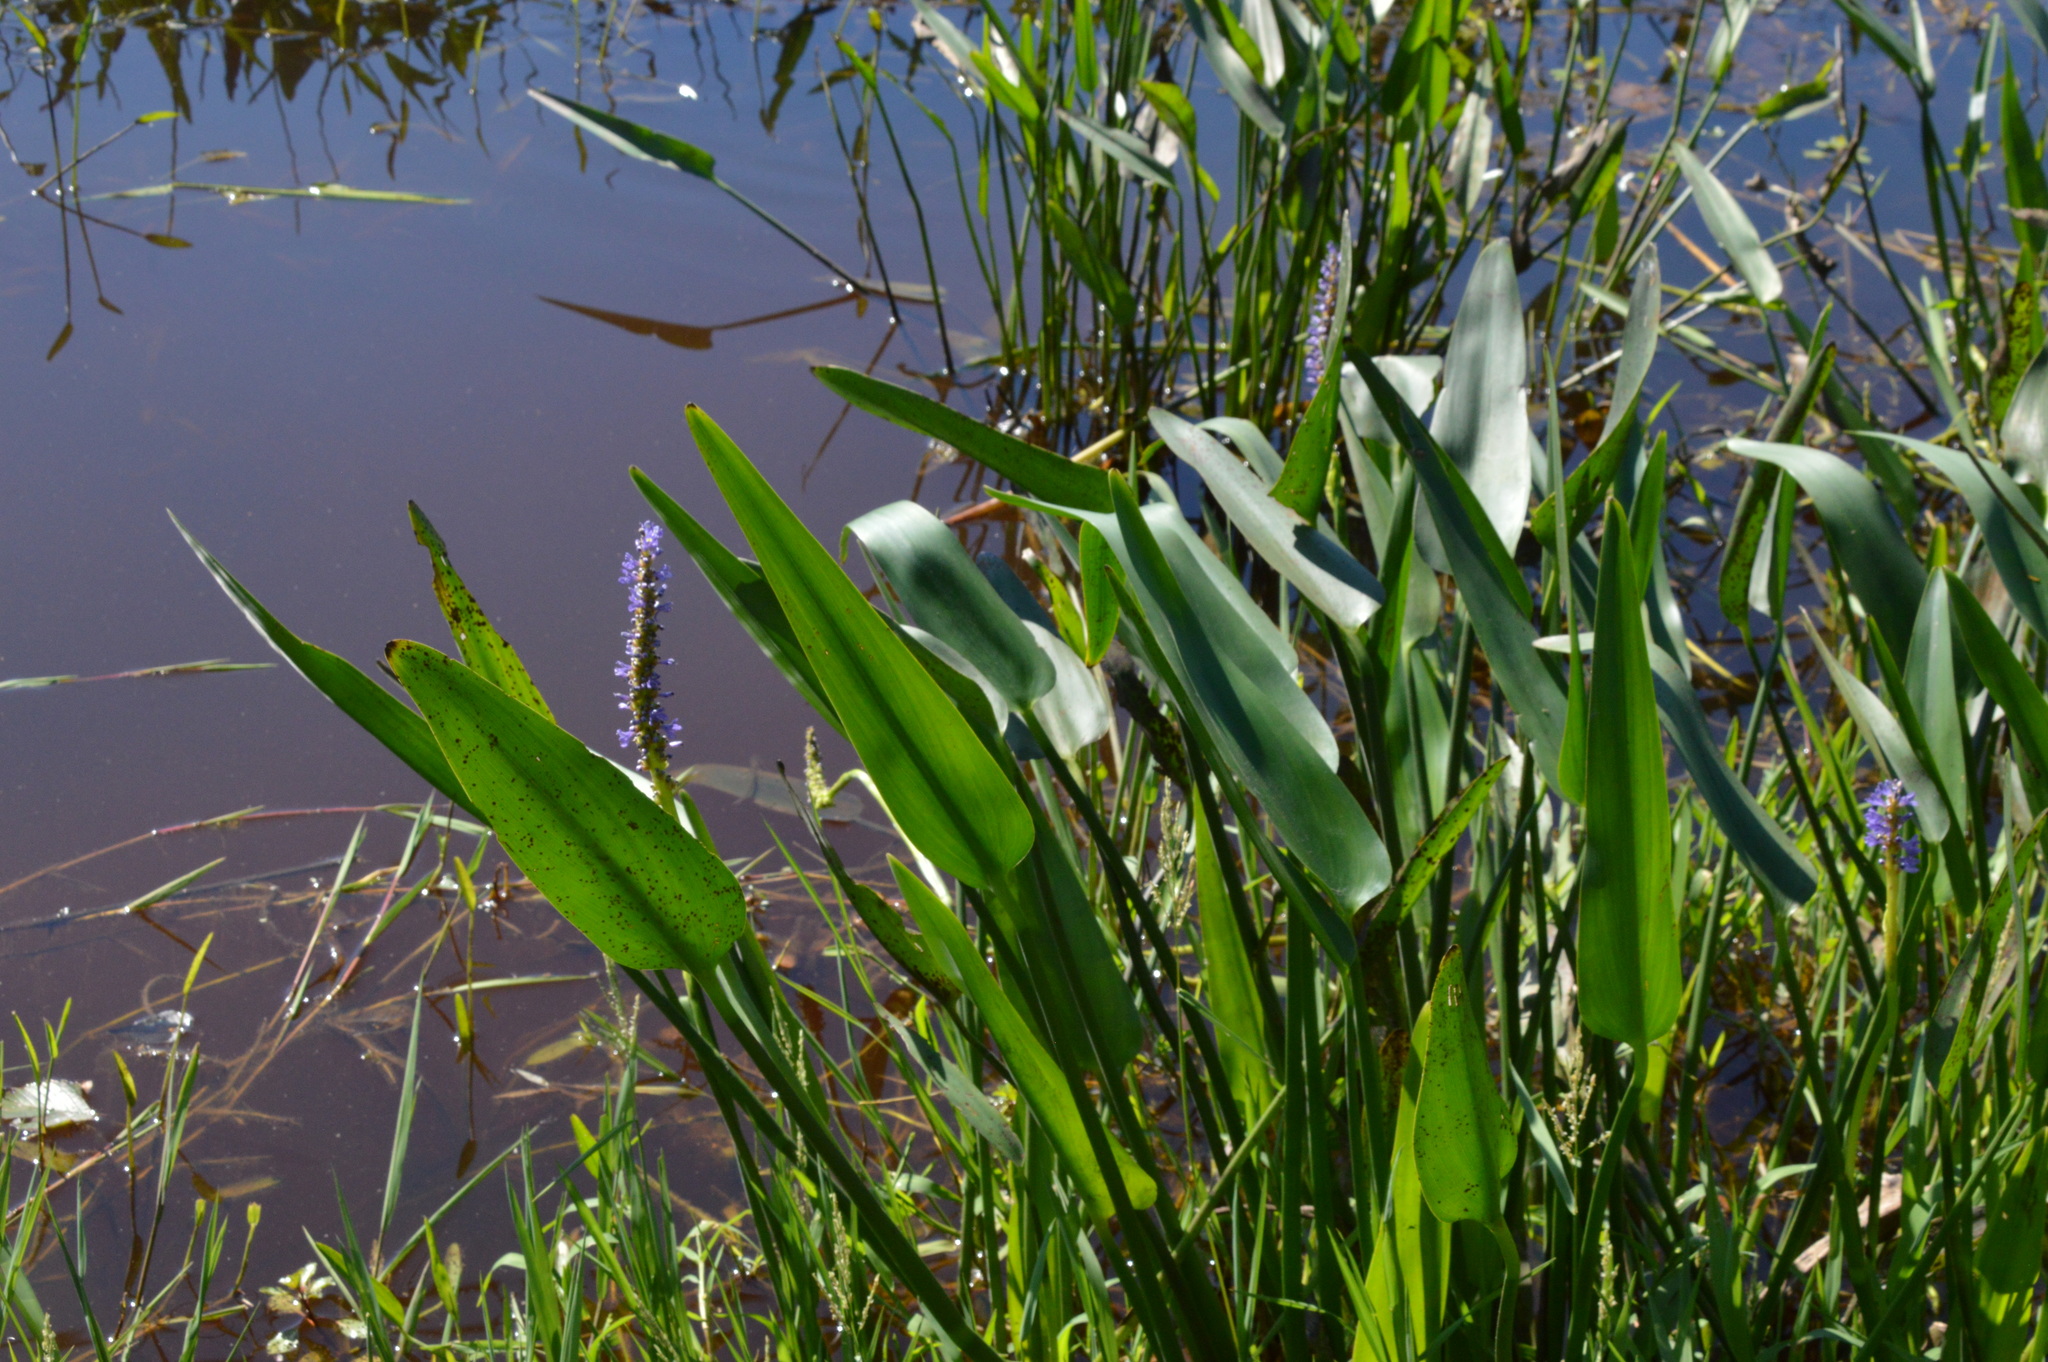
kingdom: Plantae
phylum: Tracheophyta
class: Liliopsida
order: Commelinales
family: Pontederiaceae
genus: Pontederia
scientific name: Pontederia cordata
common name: Pickerelweed
